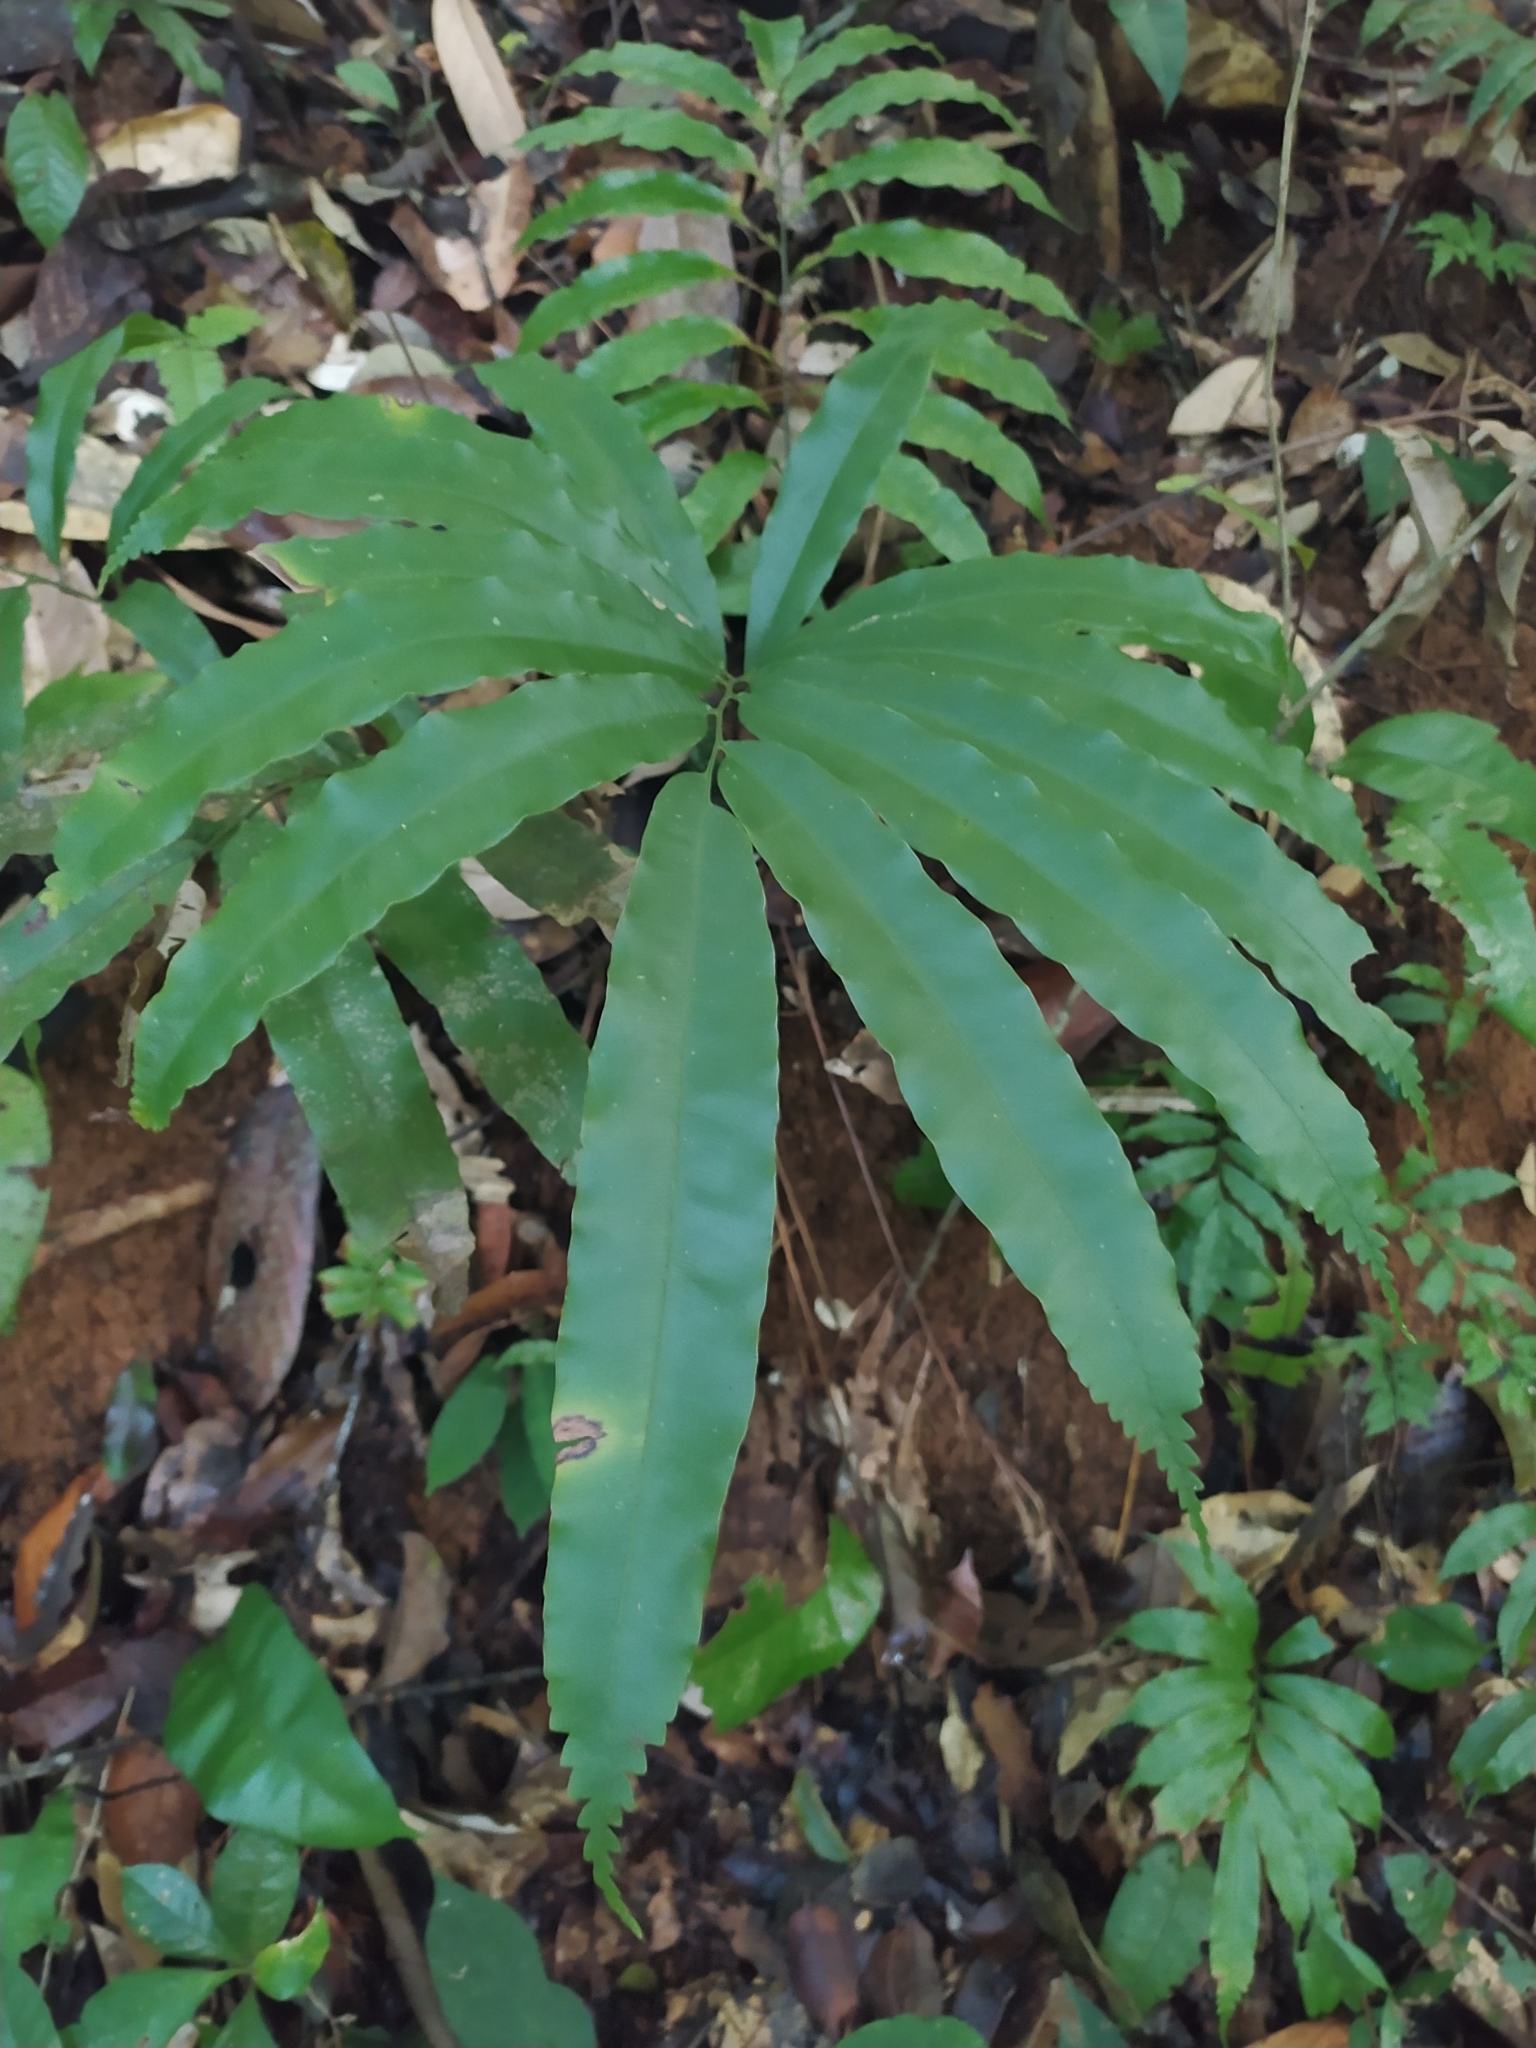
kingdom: Plantae
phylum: Tracheophyta
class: Polypodiopsida
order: Cyatheales
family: Metaxyaceae
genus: Metaxya
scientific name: Metaxya scalaris
